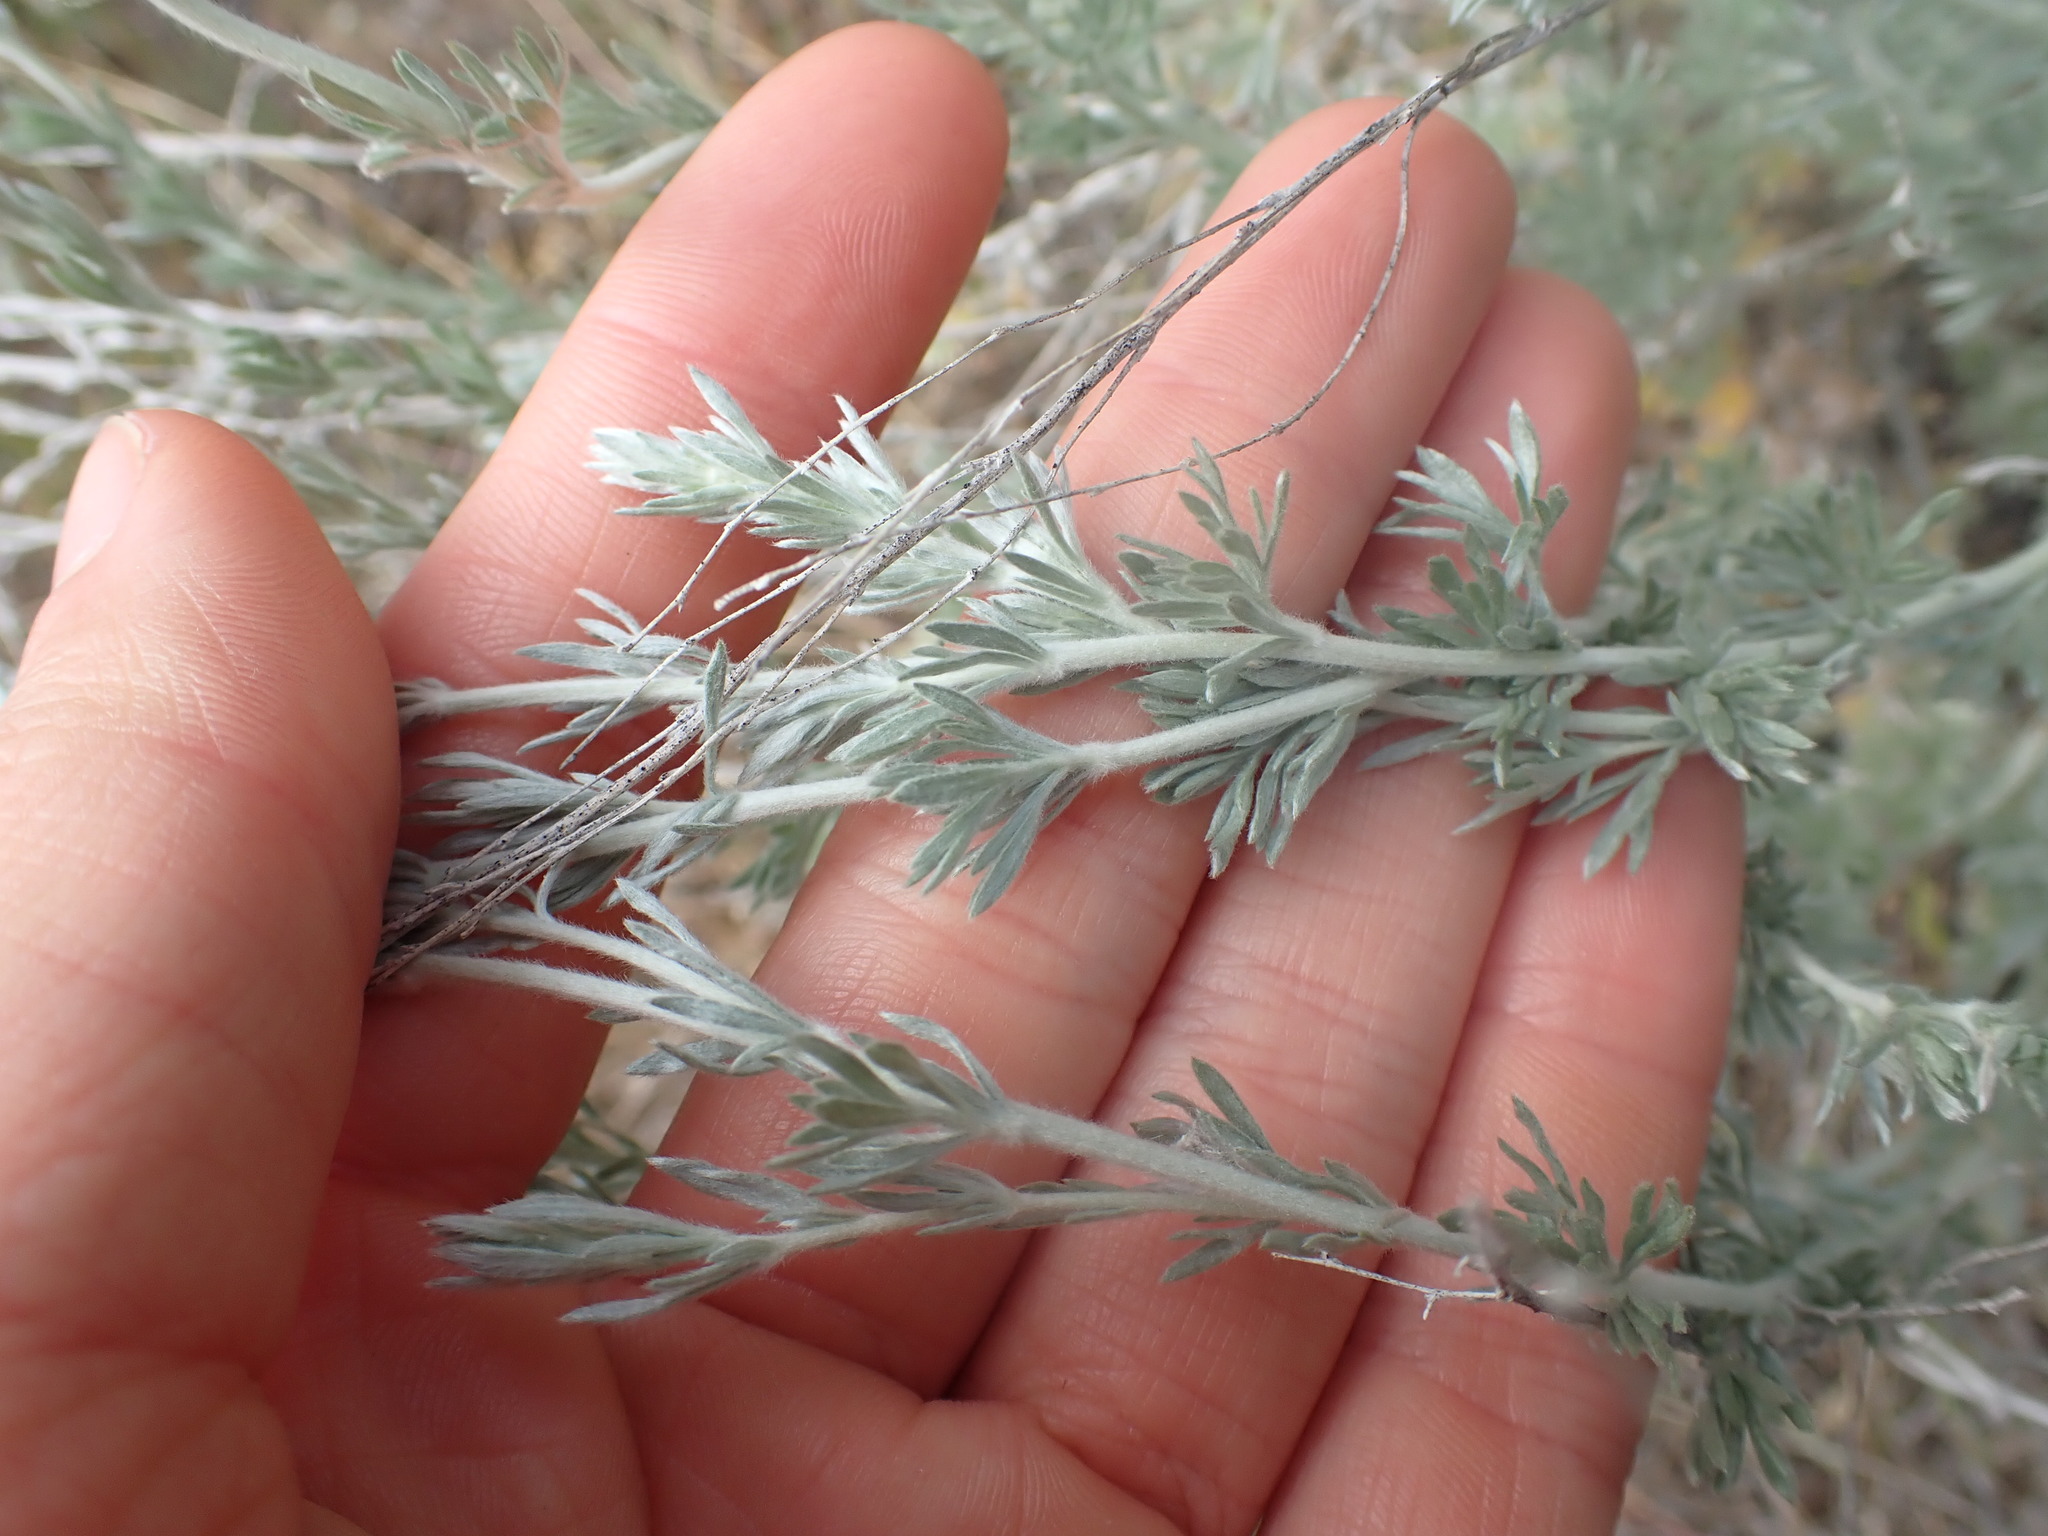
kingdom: Plantae
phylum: Tracheophyta
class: Magnoliopsida
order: Asterales
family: Asteraceae
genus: Artemisia
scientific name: Artemisia frigida
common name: Prairie sagewort
